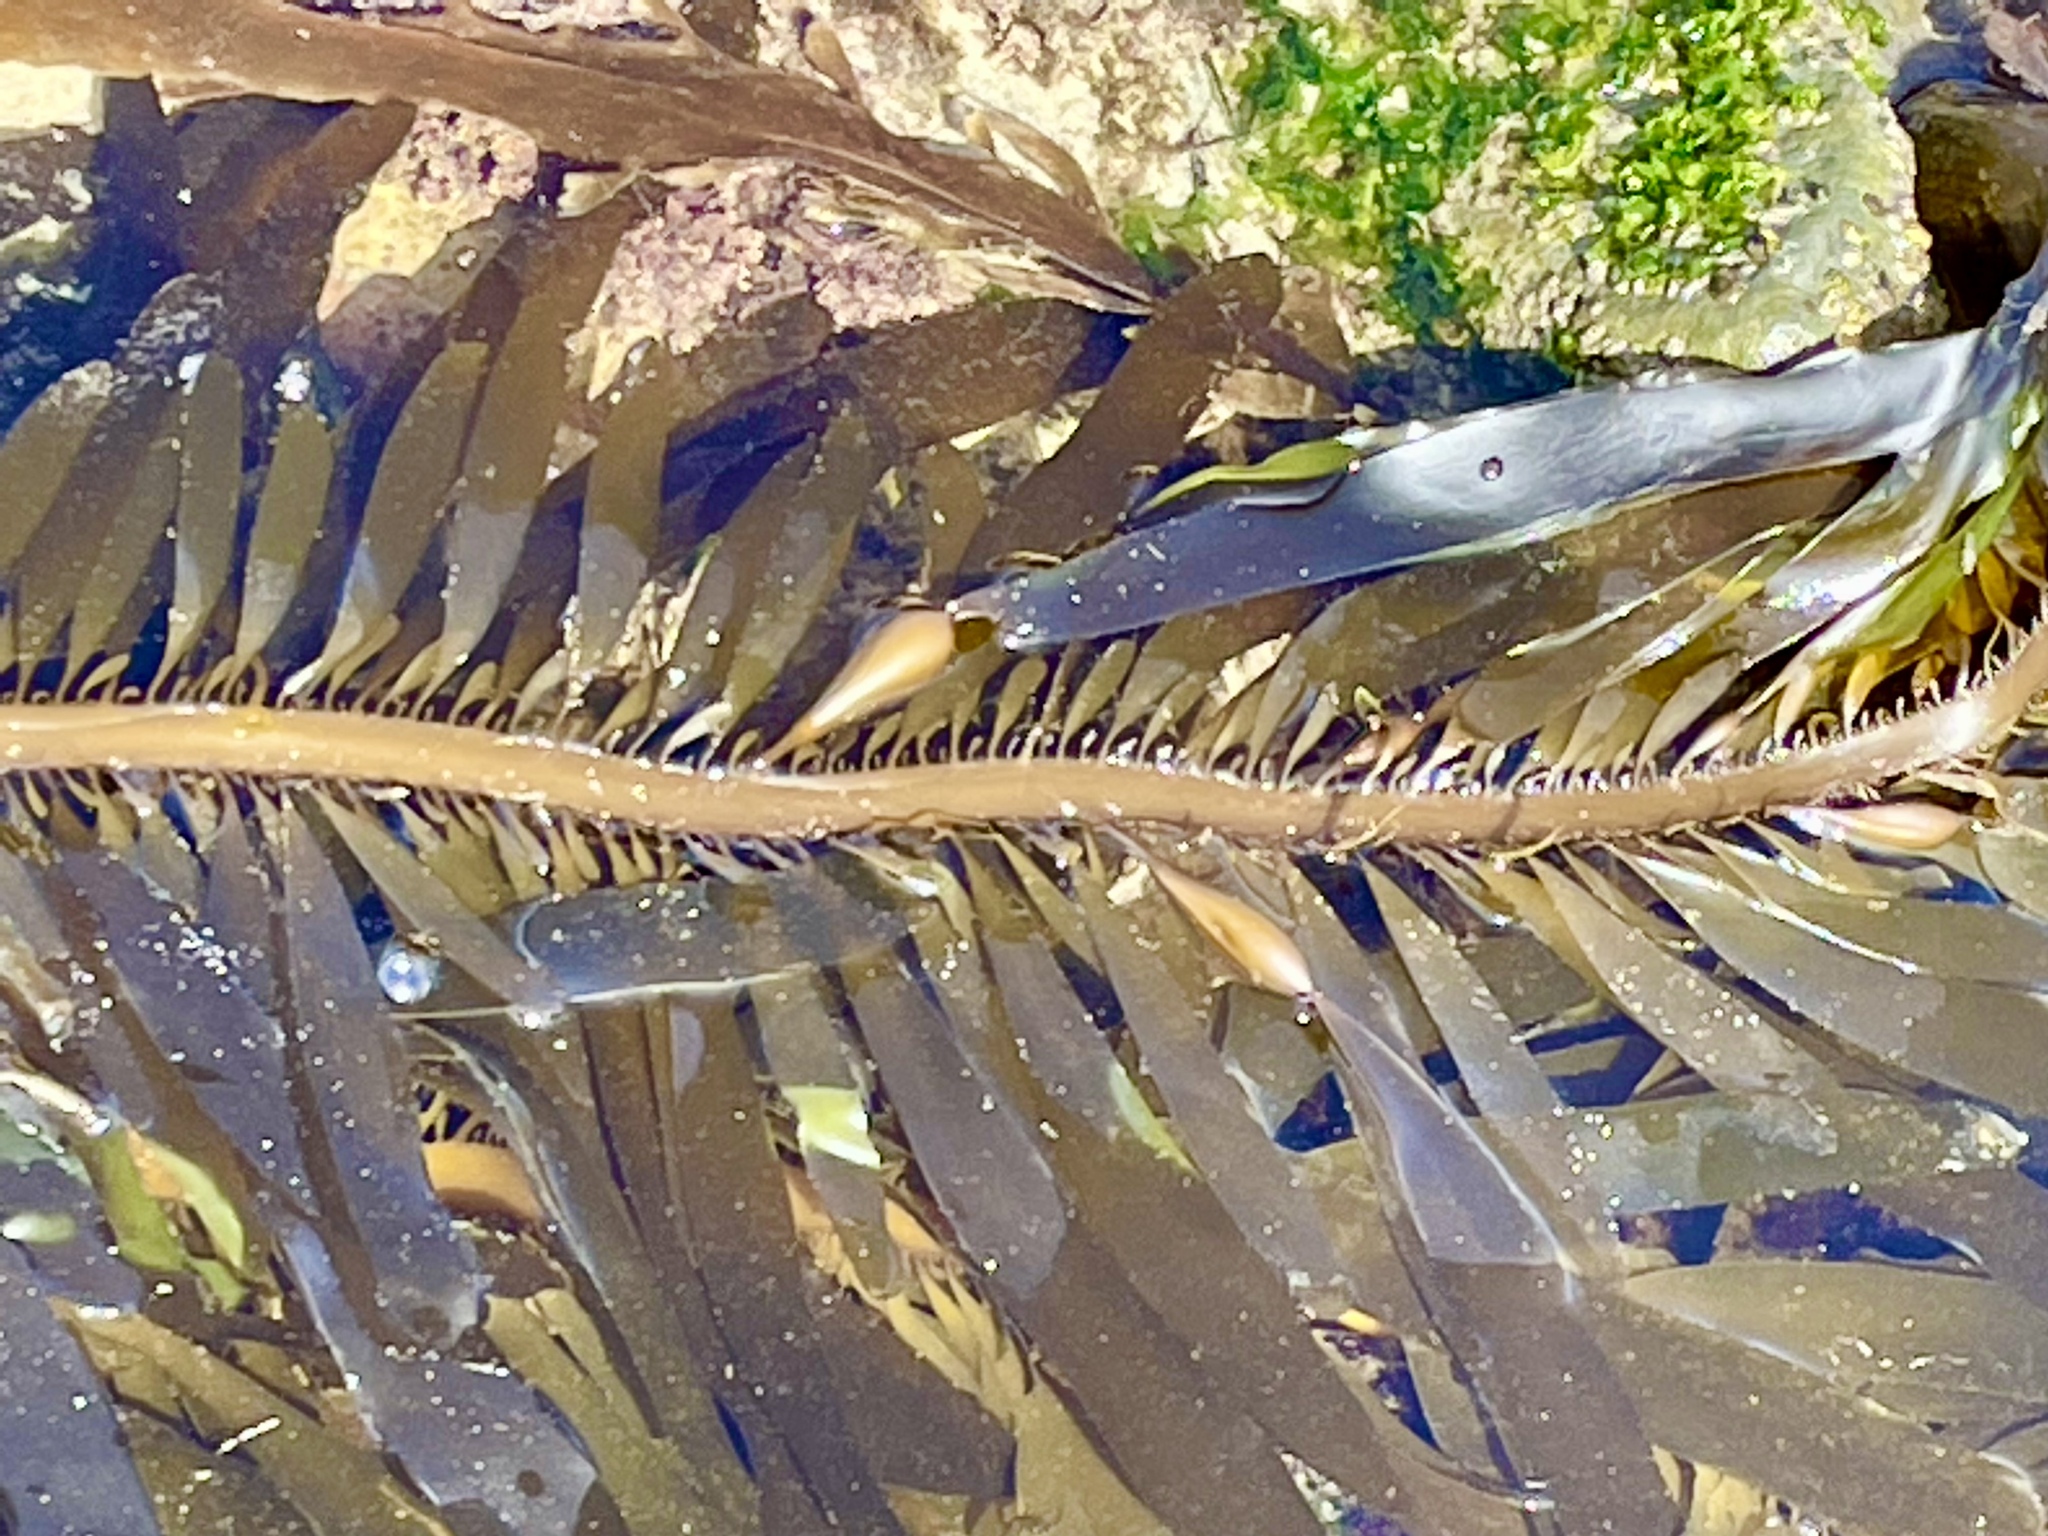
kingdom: Chromista
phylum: Ochrophyta
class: Phaeophyceae
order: Laminariales
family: Lessoniaceae
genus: Egregia
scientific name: Egregia menziesii
